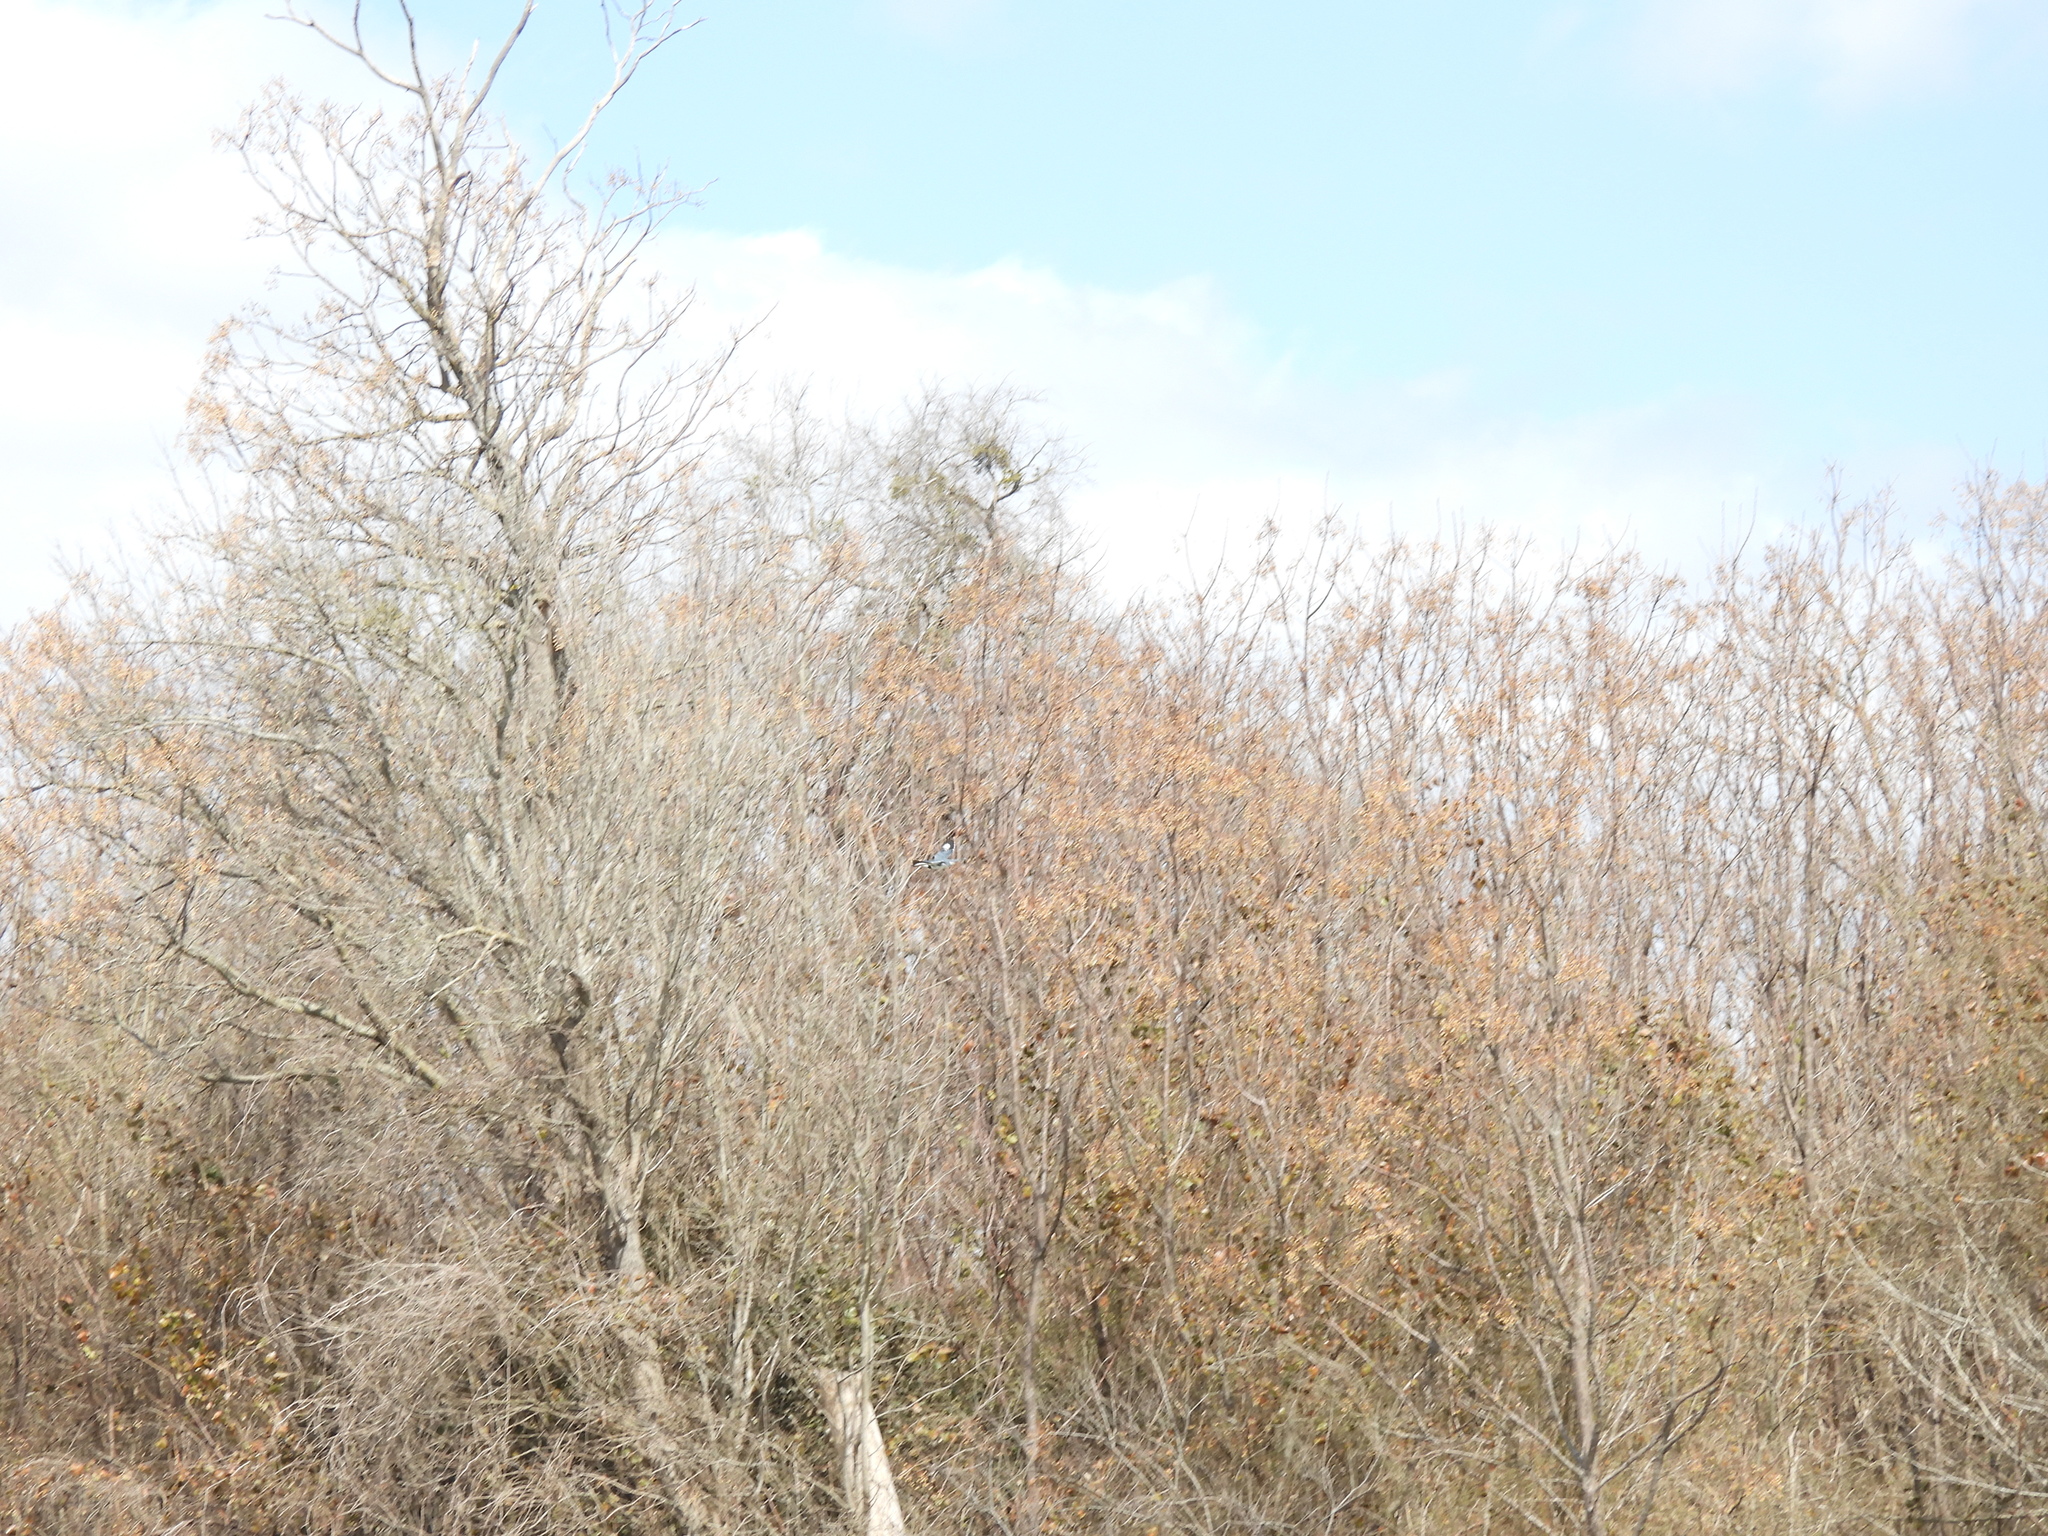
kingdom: Animalia
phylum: Chordata
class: Aves
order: Coraciiformes
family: Alcedinidae
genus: Megaceryle
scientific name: Megaceryle alcyon
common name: Belted kingfisher
